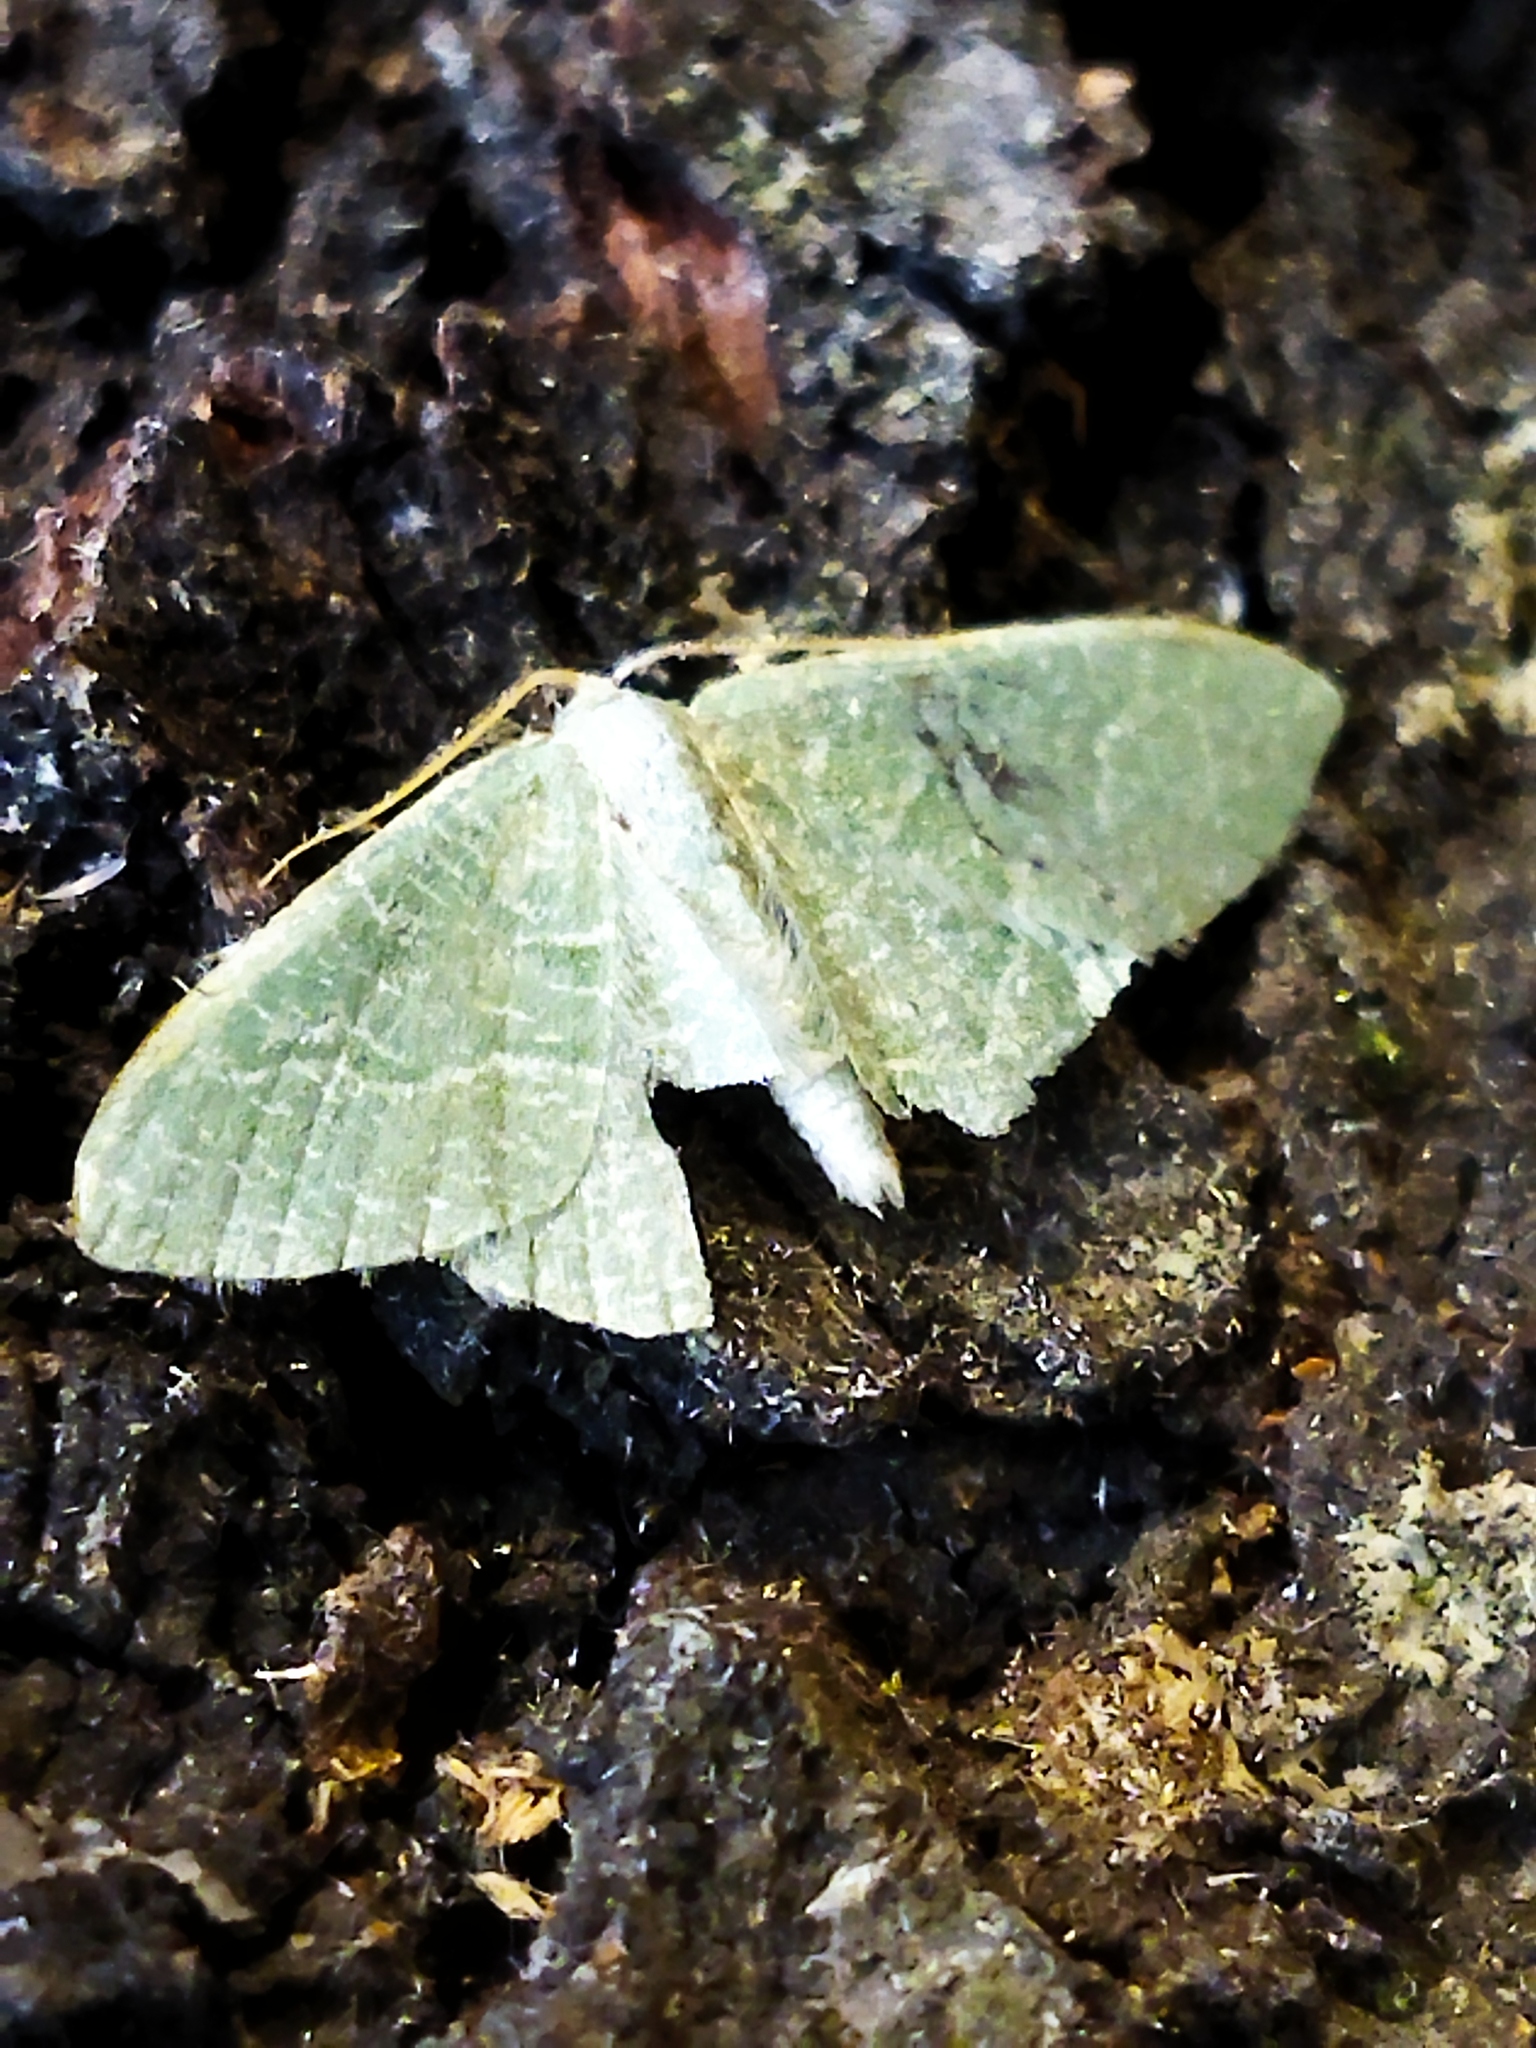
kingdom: Animalia
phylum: Arthropoda
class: Insecta
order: Lepidoptera
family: Geometridae
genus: Chlorissa
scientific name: Chlorissa etruscaria
